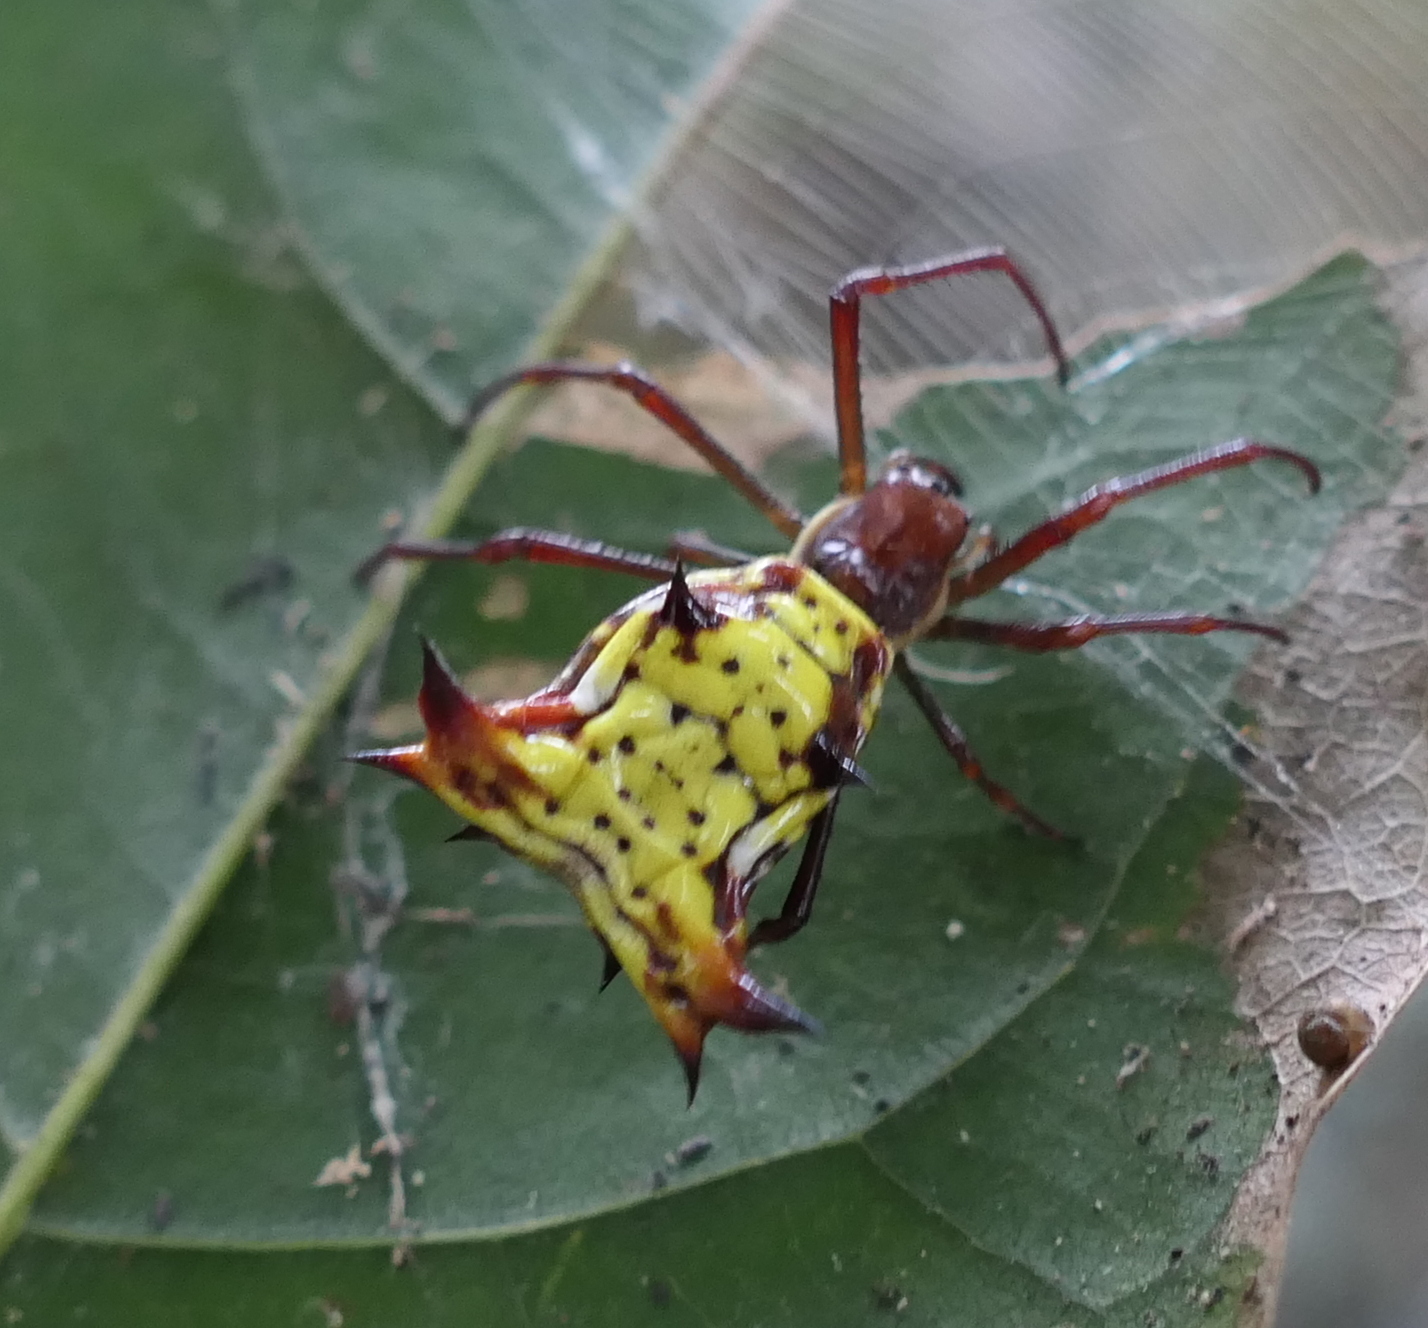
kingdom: Animalia
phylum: Arthropoda
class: Arachnida
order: Araneae
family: Araneidae
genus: Micrathena
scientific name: Micrathena fissispina
